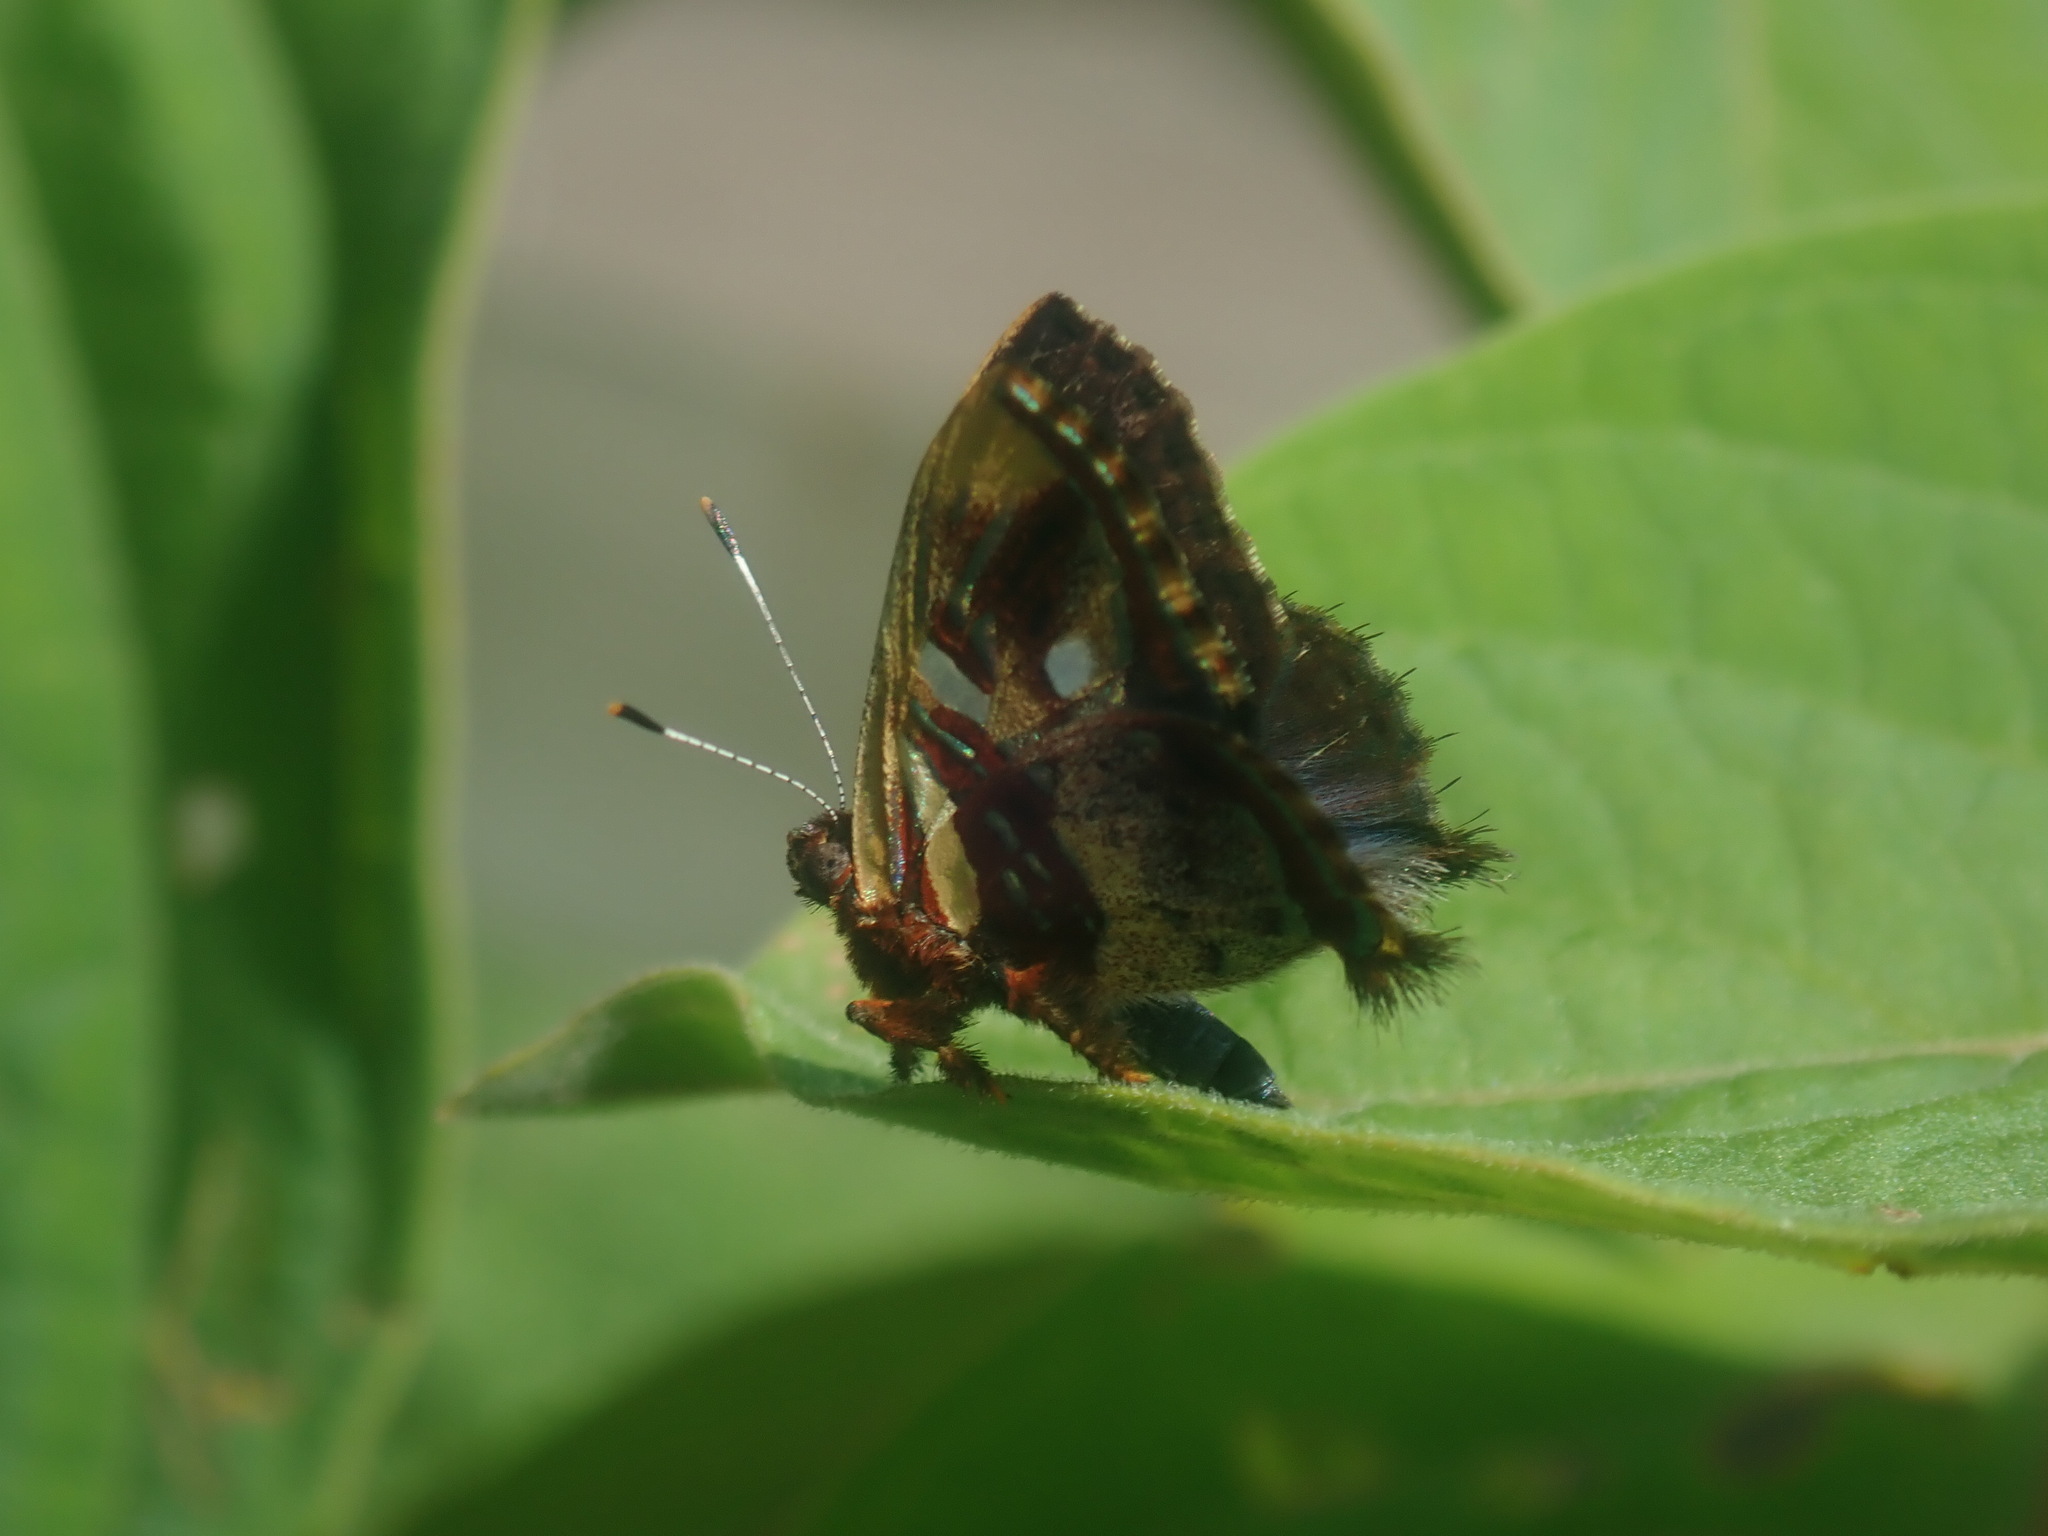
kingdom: Animalia
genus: Anteros
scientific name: Anteros carausius
